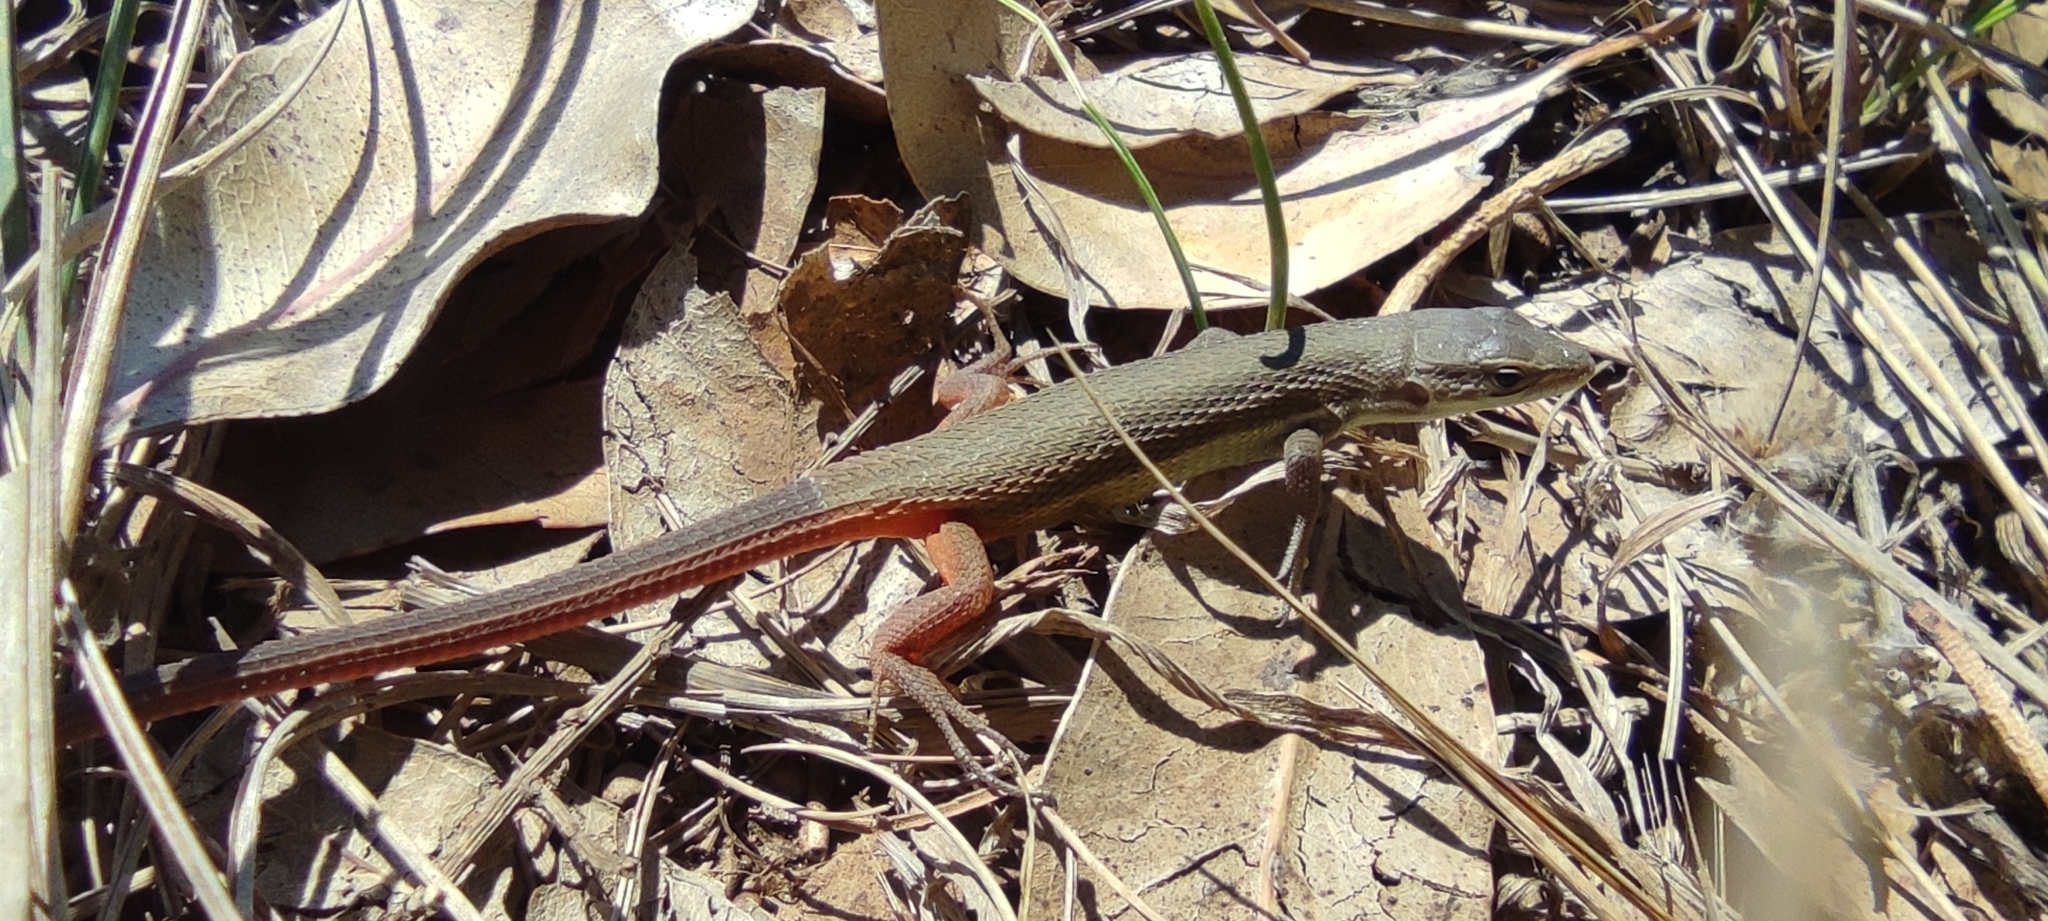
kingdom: Animalia
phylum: Chordata
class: Squamata
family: Lacertidae
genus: Psammodromus
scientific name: Psammodromus algirus
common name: Algerian psammodromus
